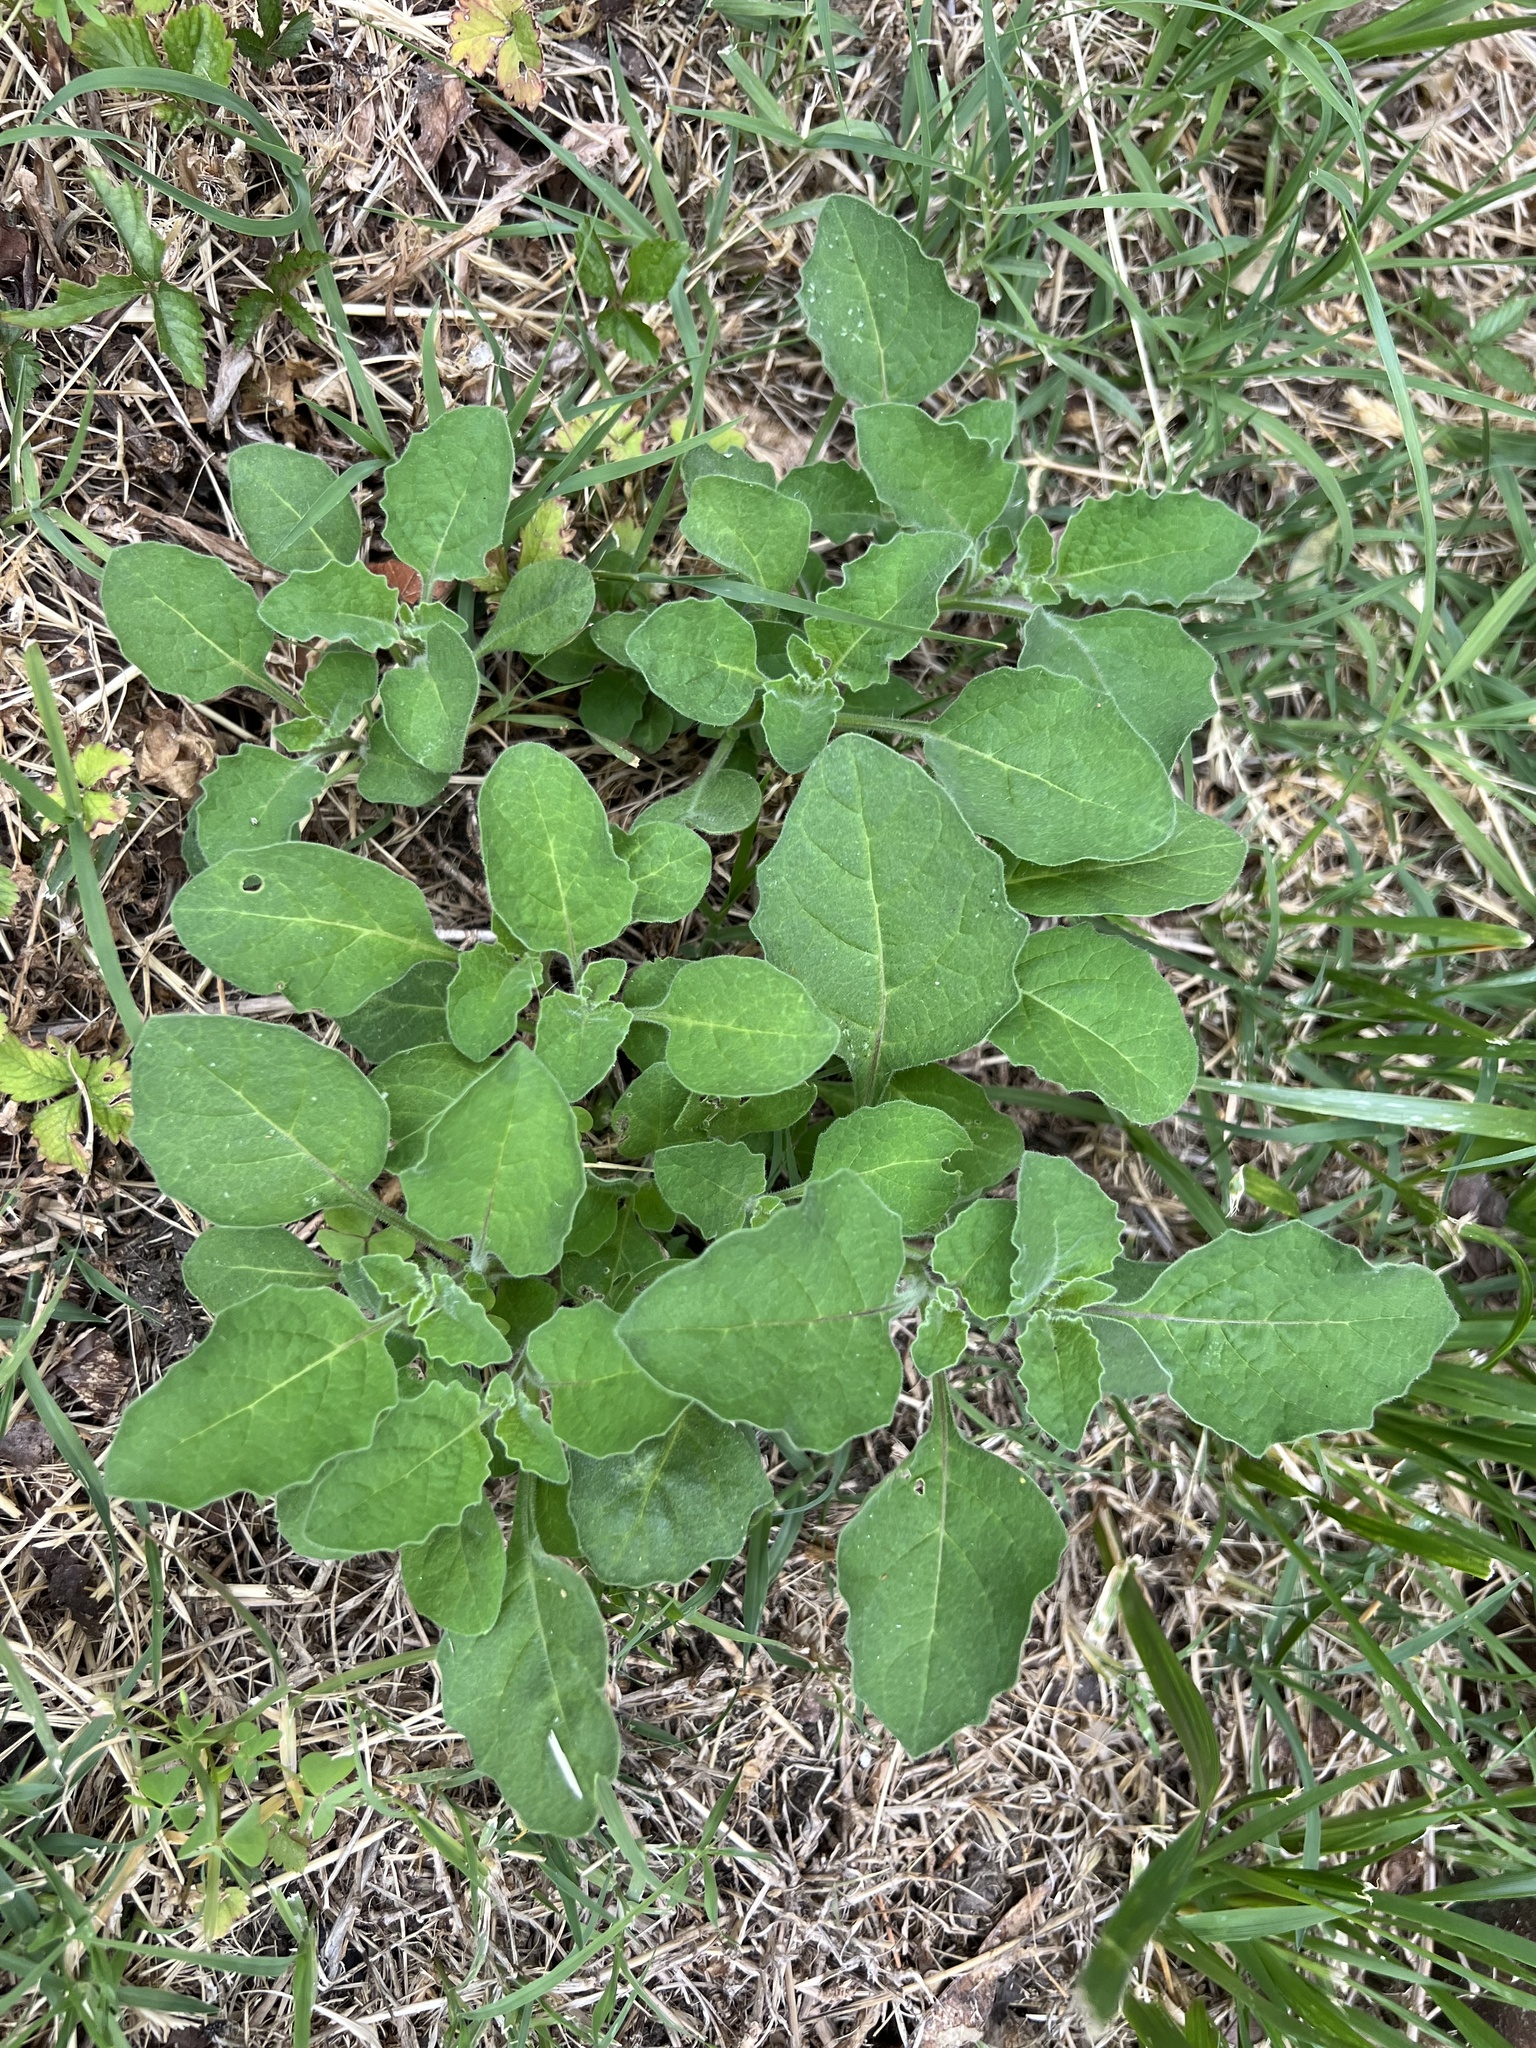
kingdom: Plantae
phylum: Tracheophyta
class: Magnoliopsida
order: Solanales
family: Solanaceae
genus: Solanum
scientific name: Solanum sarrachoides
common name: Leafy-fruited nightshade
